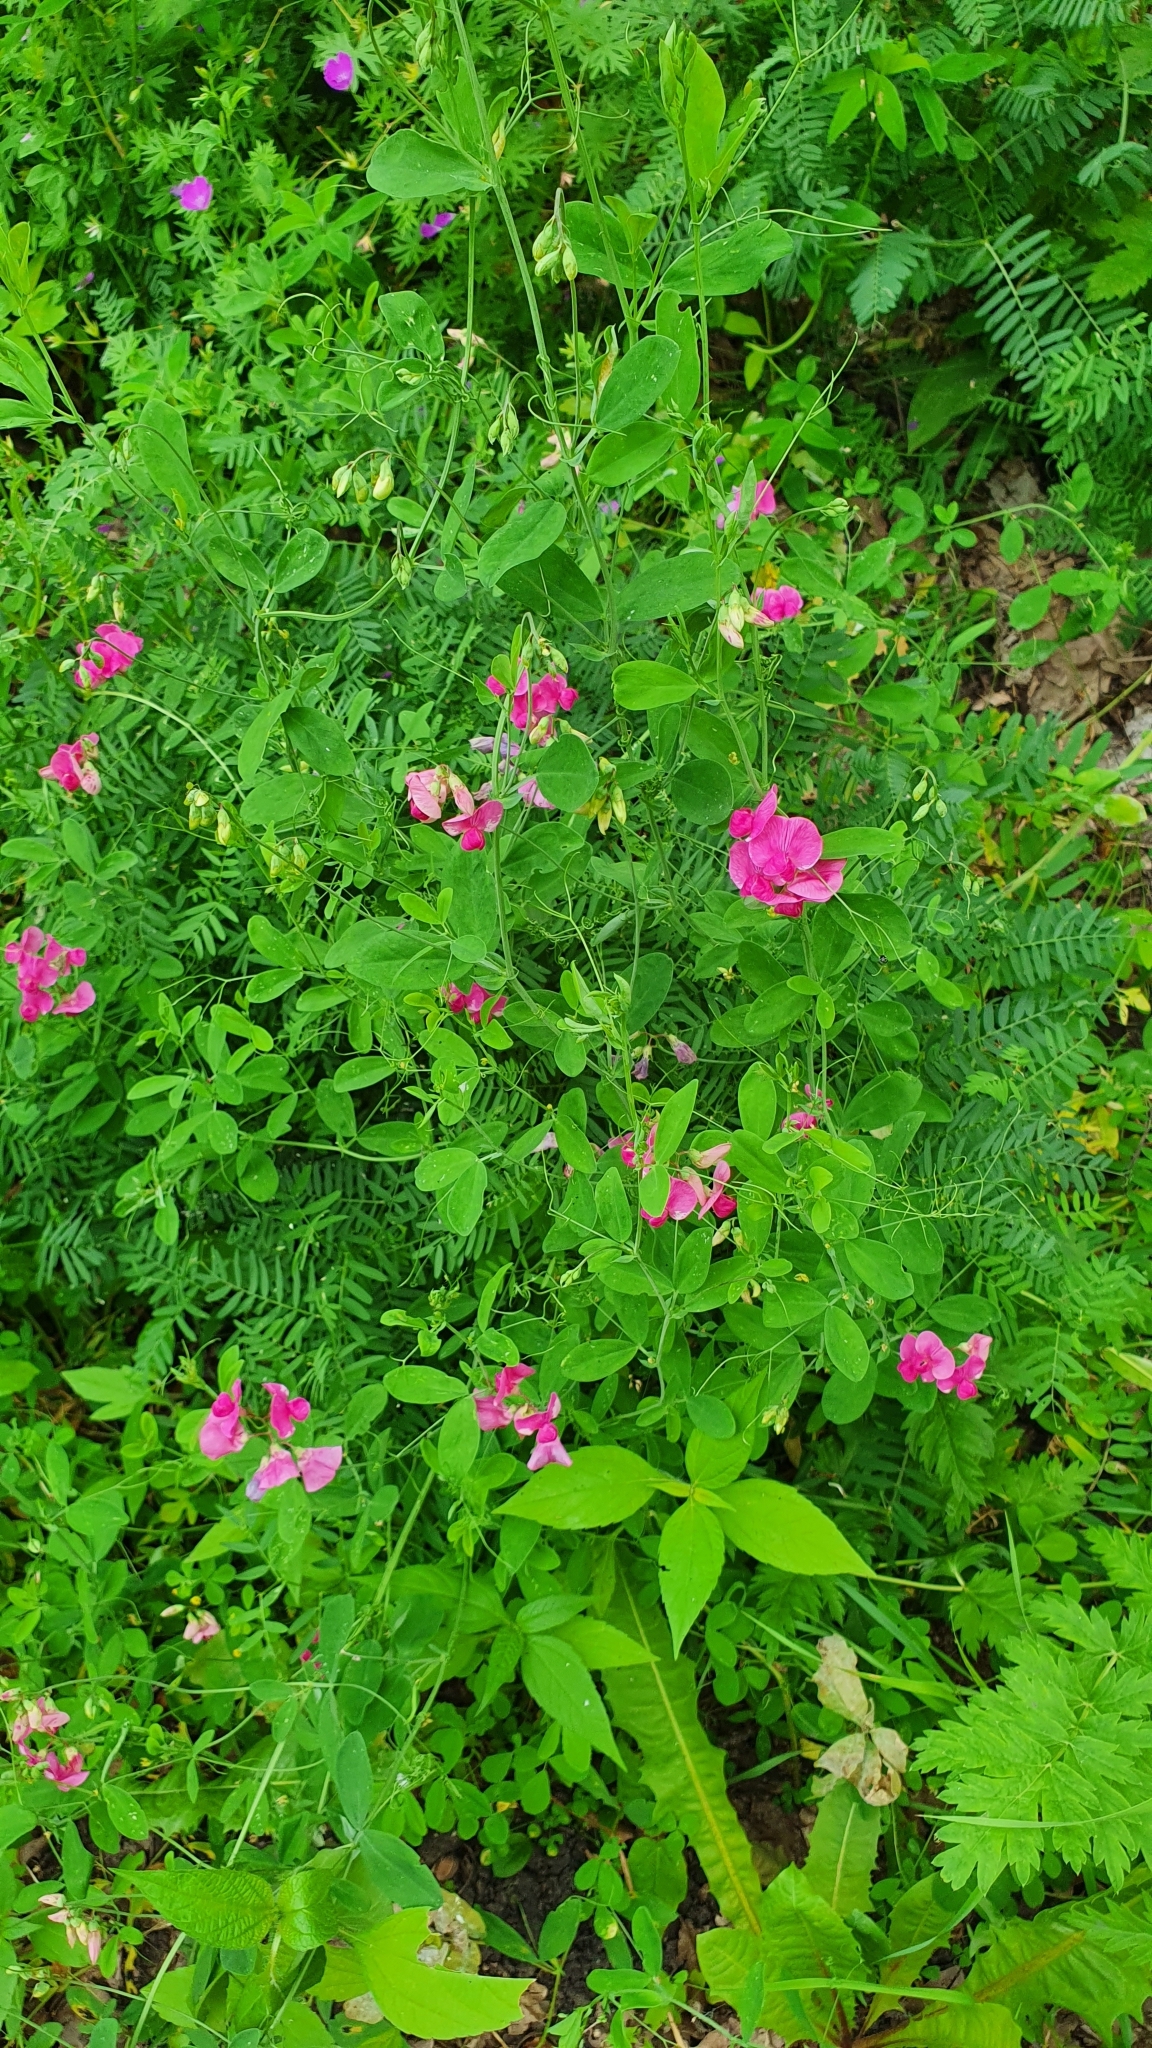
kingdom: Plantae
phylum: Tracheophyta
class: Magnoliopsida
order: Fabales
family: Fabaceae
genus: Lathyrus
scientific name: Lathyrus tuberosus
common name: Tuberous pea
